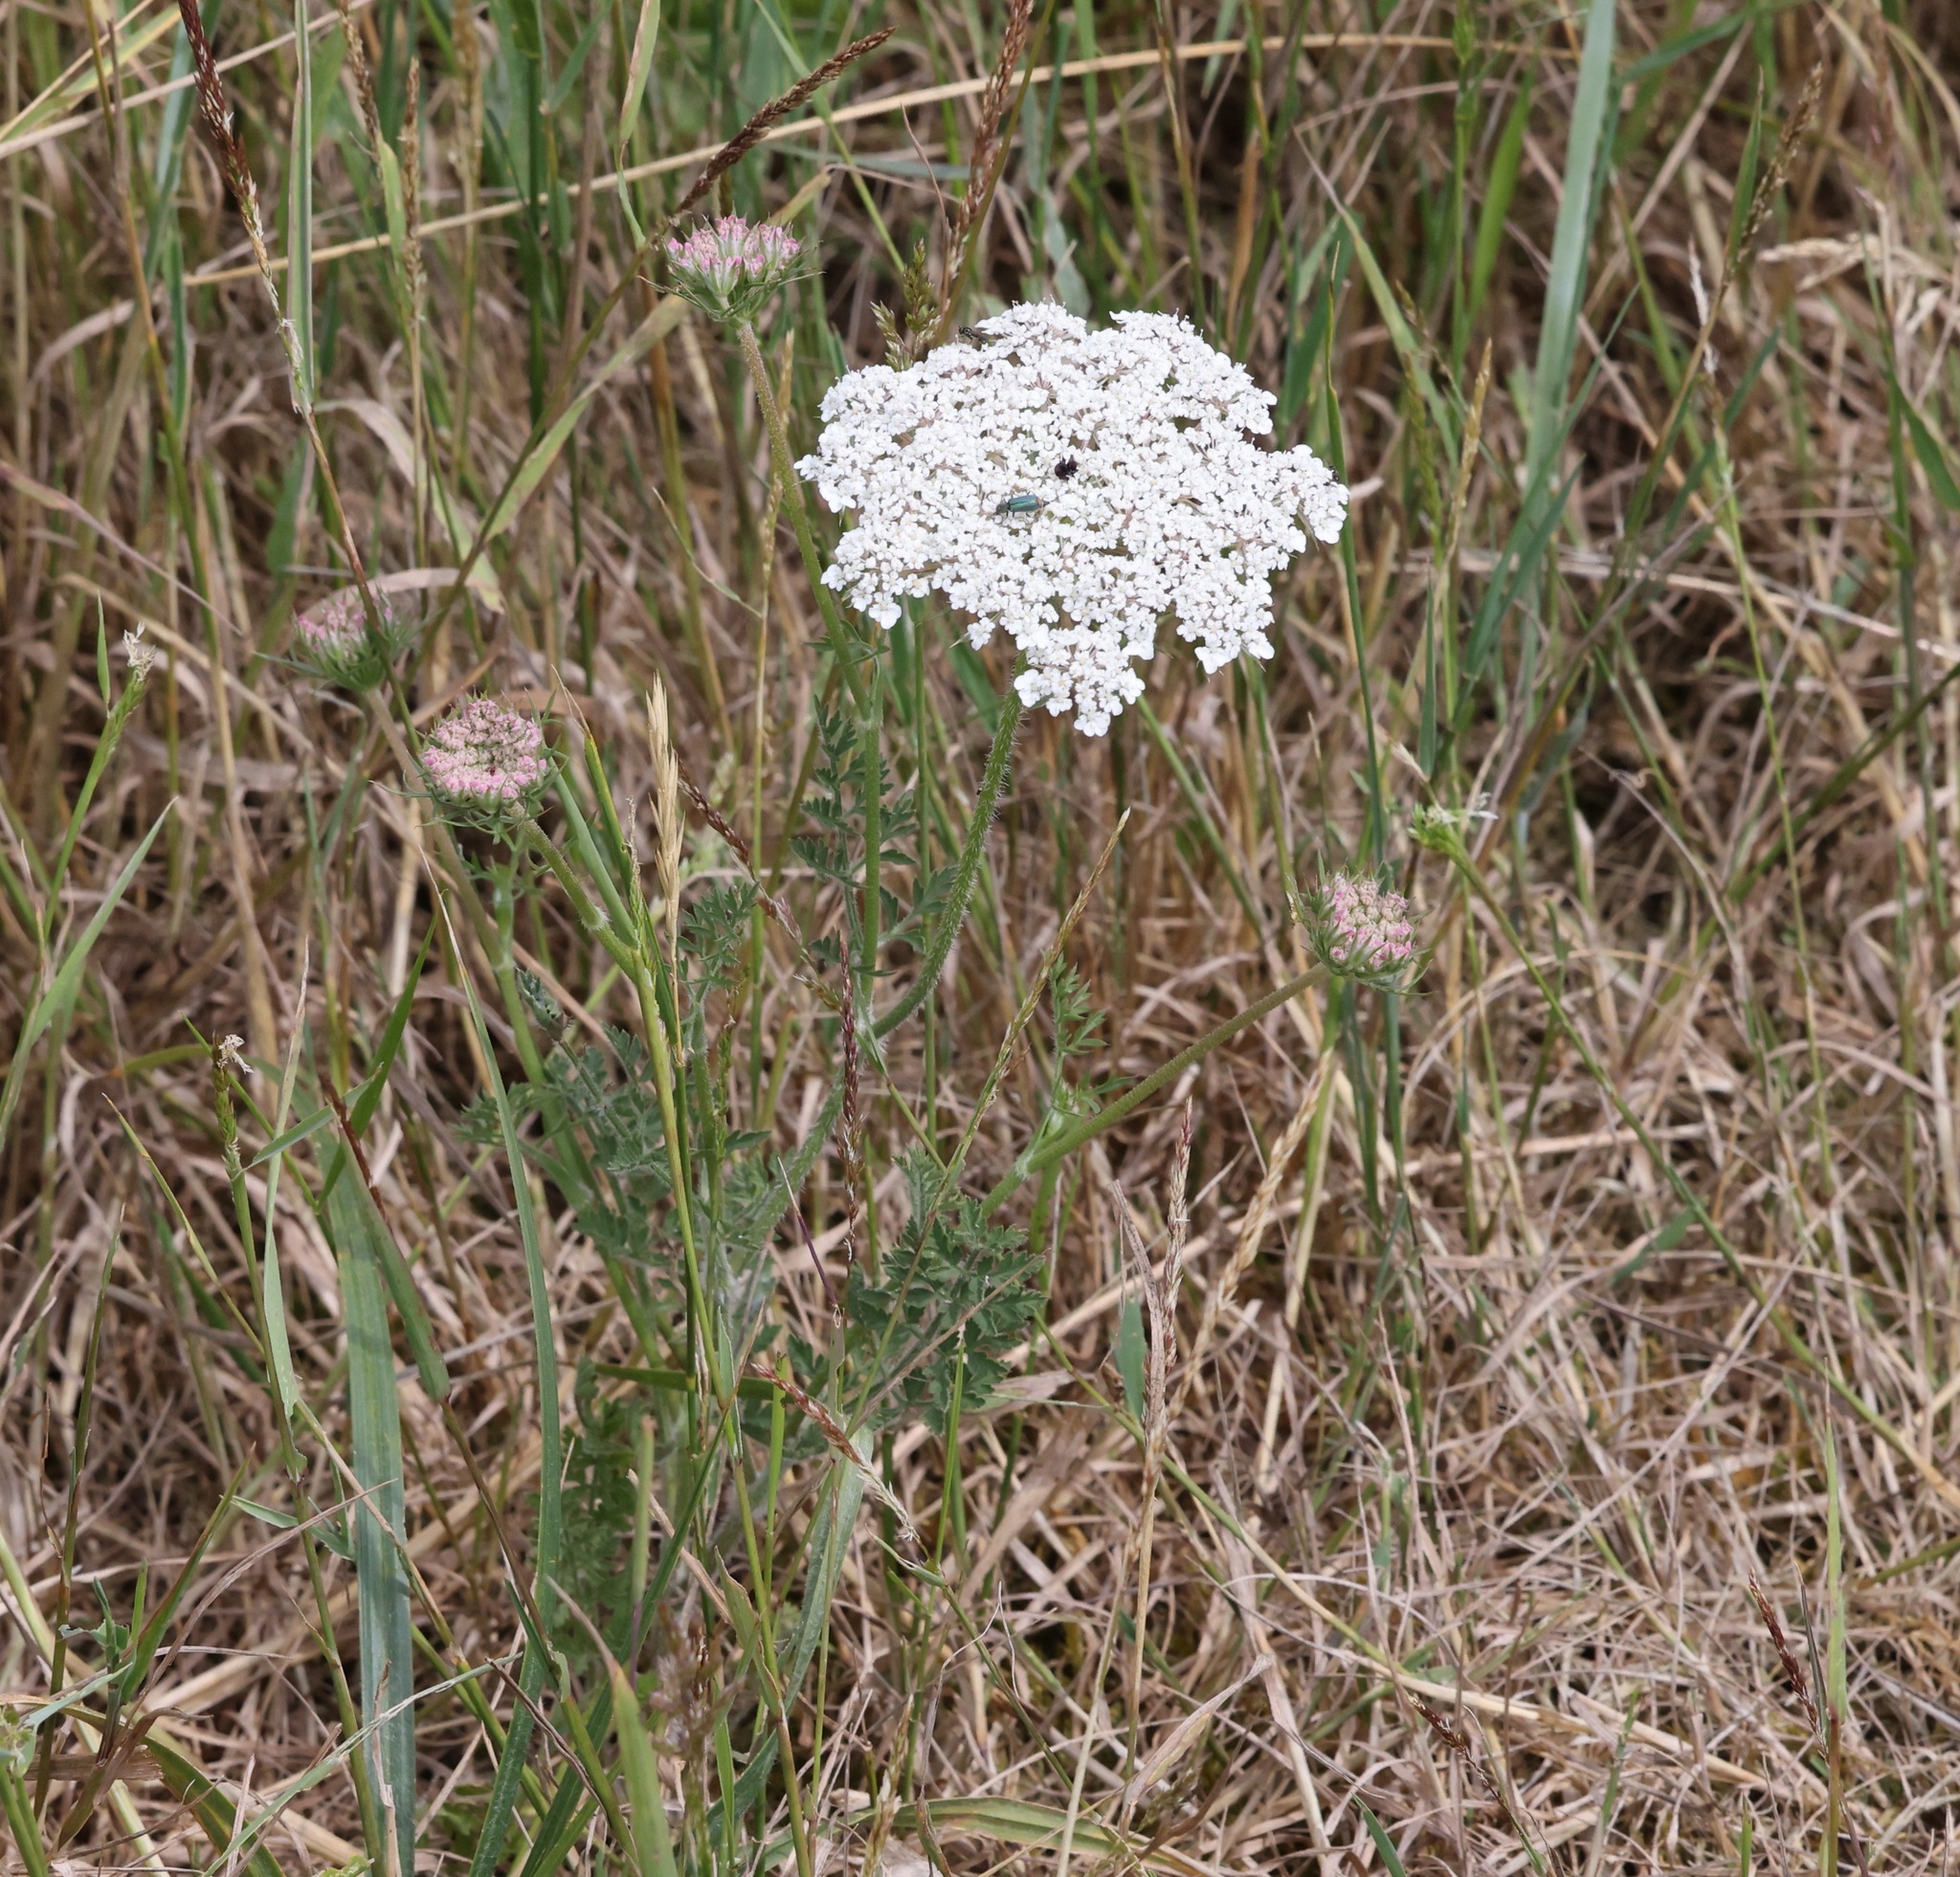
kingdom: Plantae
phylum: Tracheophyta
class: Magnoliopsida
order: Asterales
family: Asteraceae
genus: Achillea
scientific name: Achillea millefolium
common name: Yarrow
